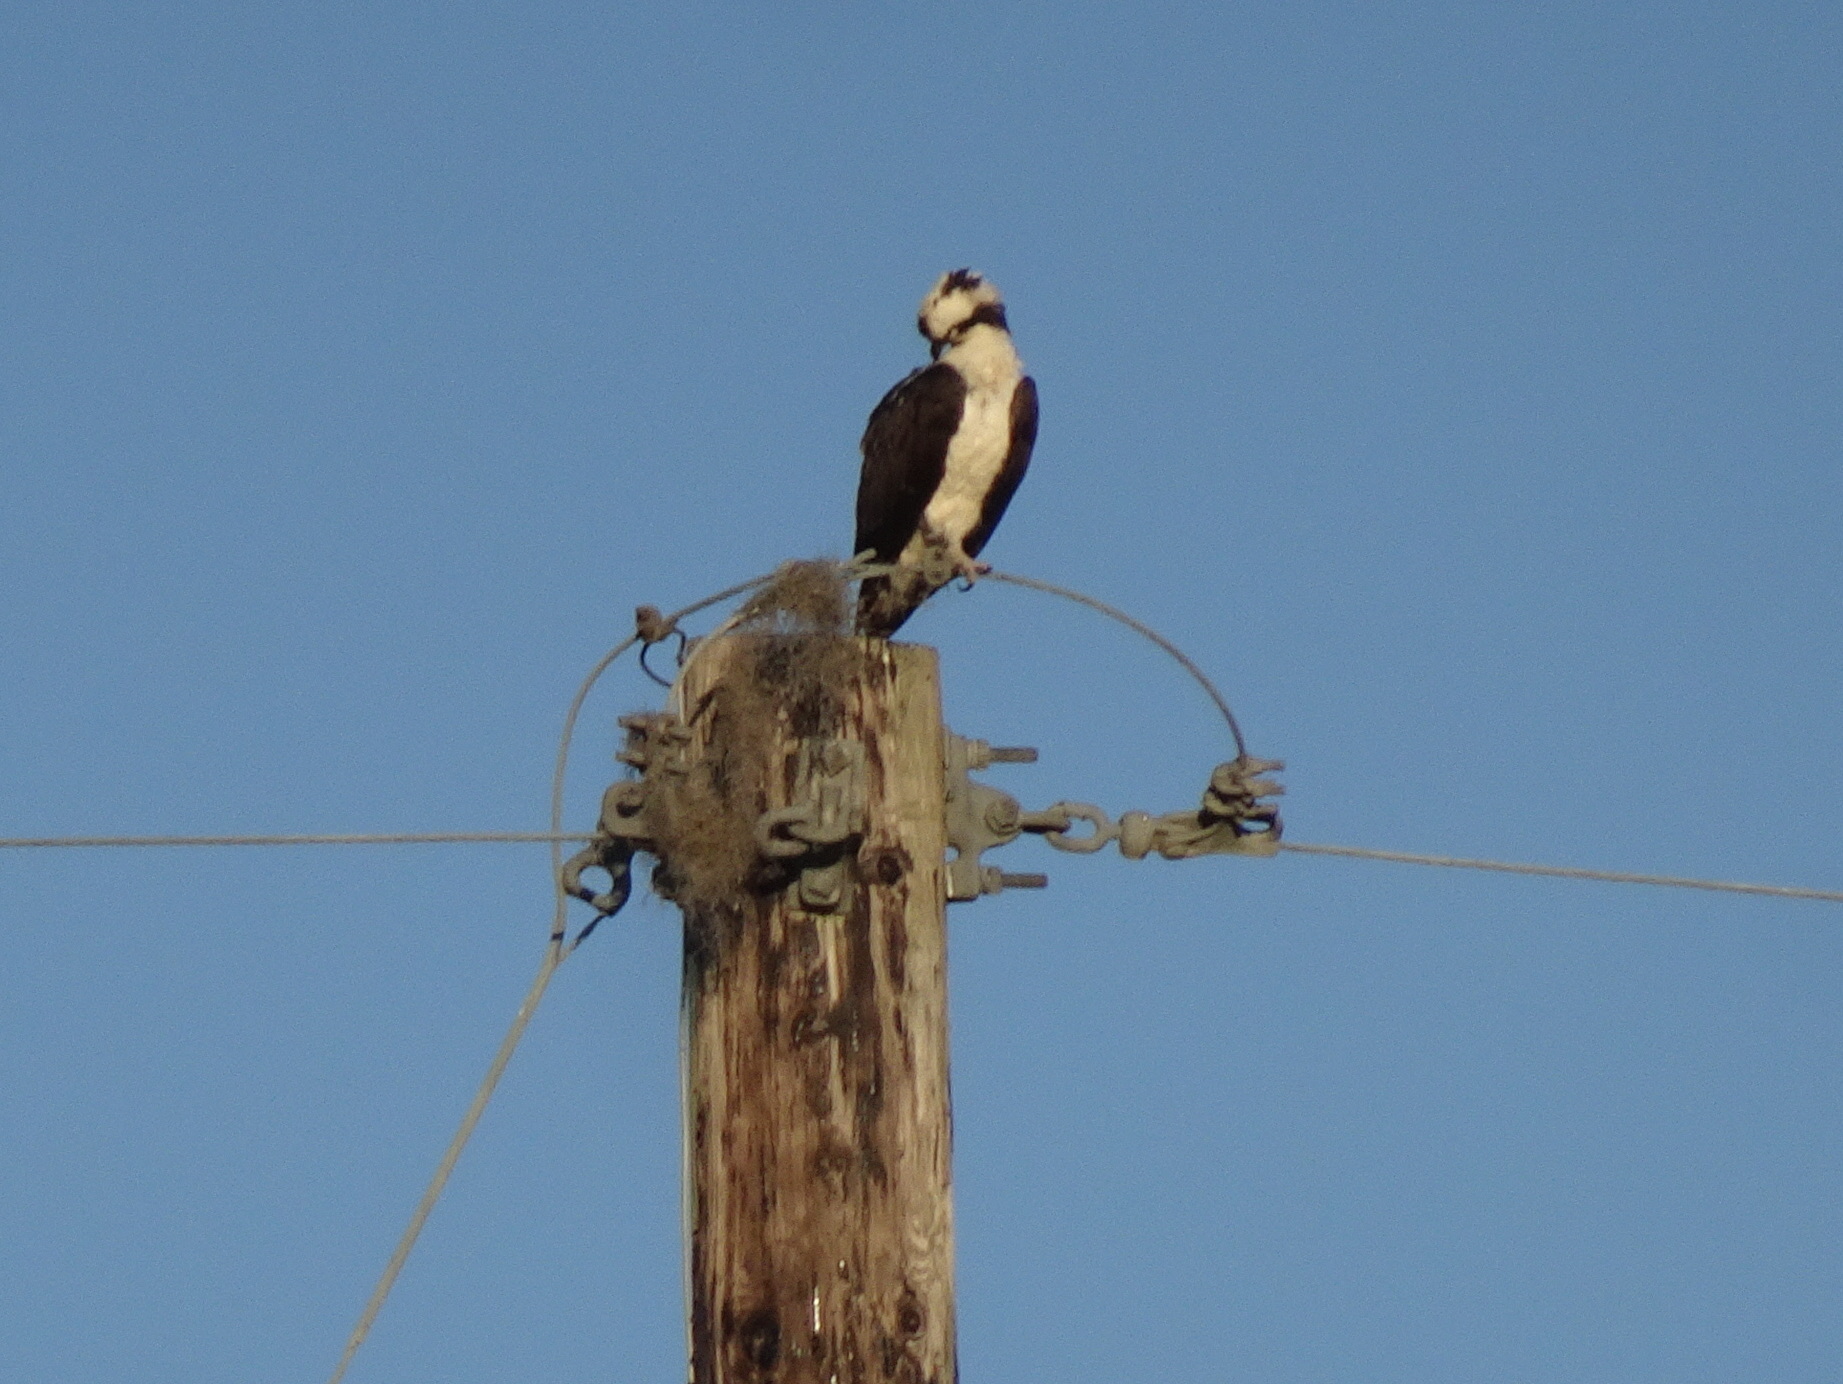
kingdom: Animalia
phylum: Chordata
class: Aves
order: Accipitriformes
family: Pandionidae
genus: Pandion
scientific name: Pandion haliaetus
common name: Osprey
